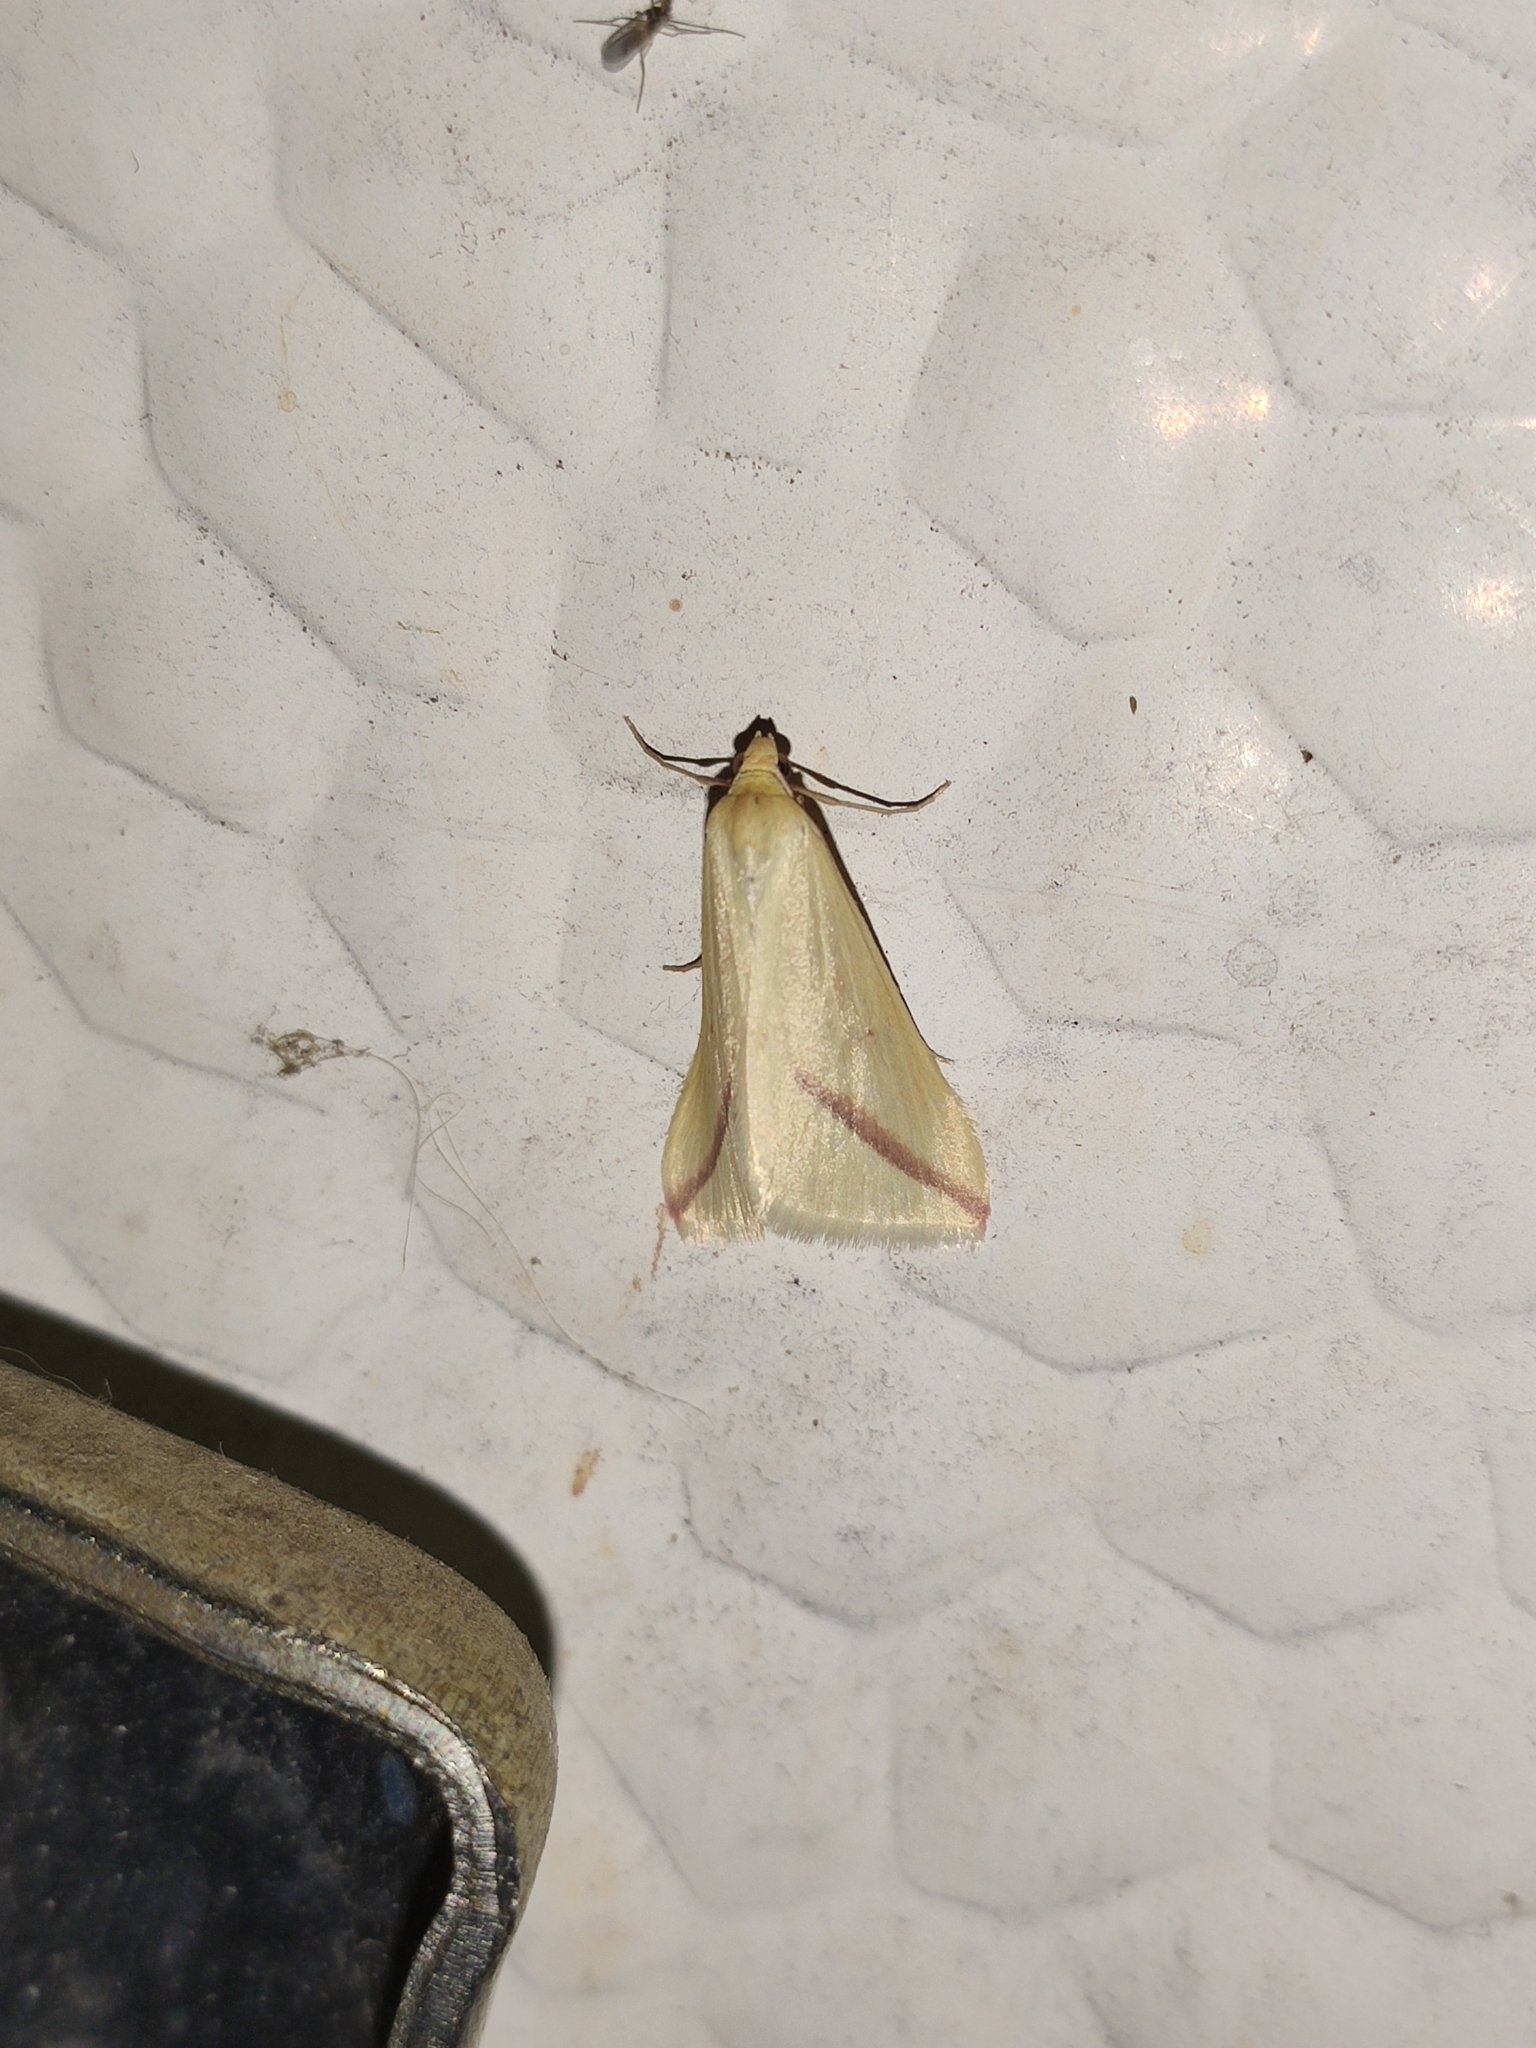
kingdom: Animalia
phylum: Arthropoda
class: Insecta
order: Lepidoptera
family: Geometridae
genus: Rhodometra
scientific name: Rhodometra sacraria
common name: Vestal
